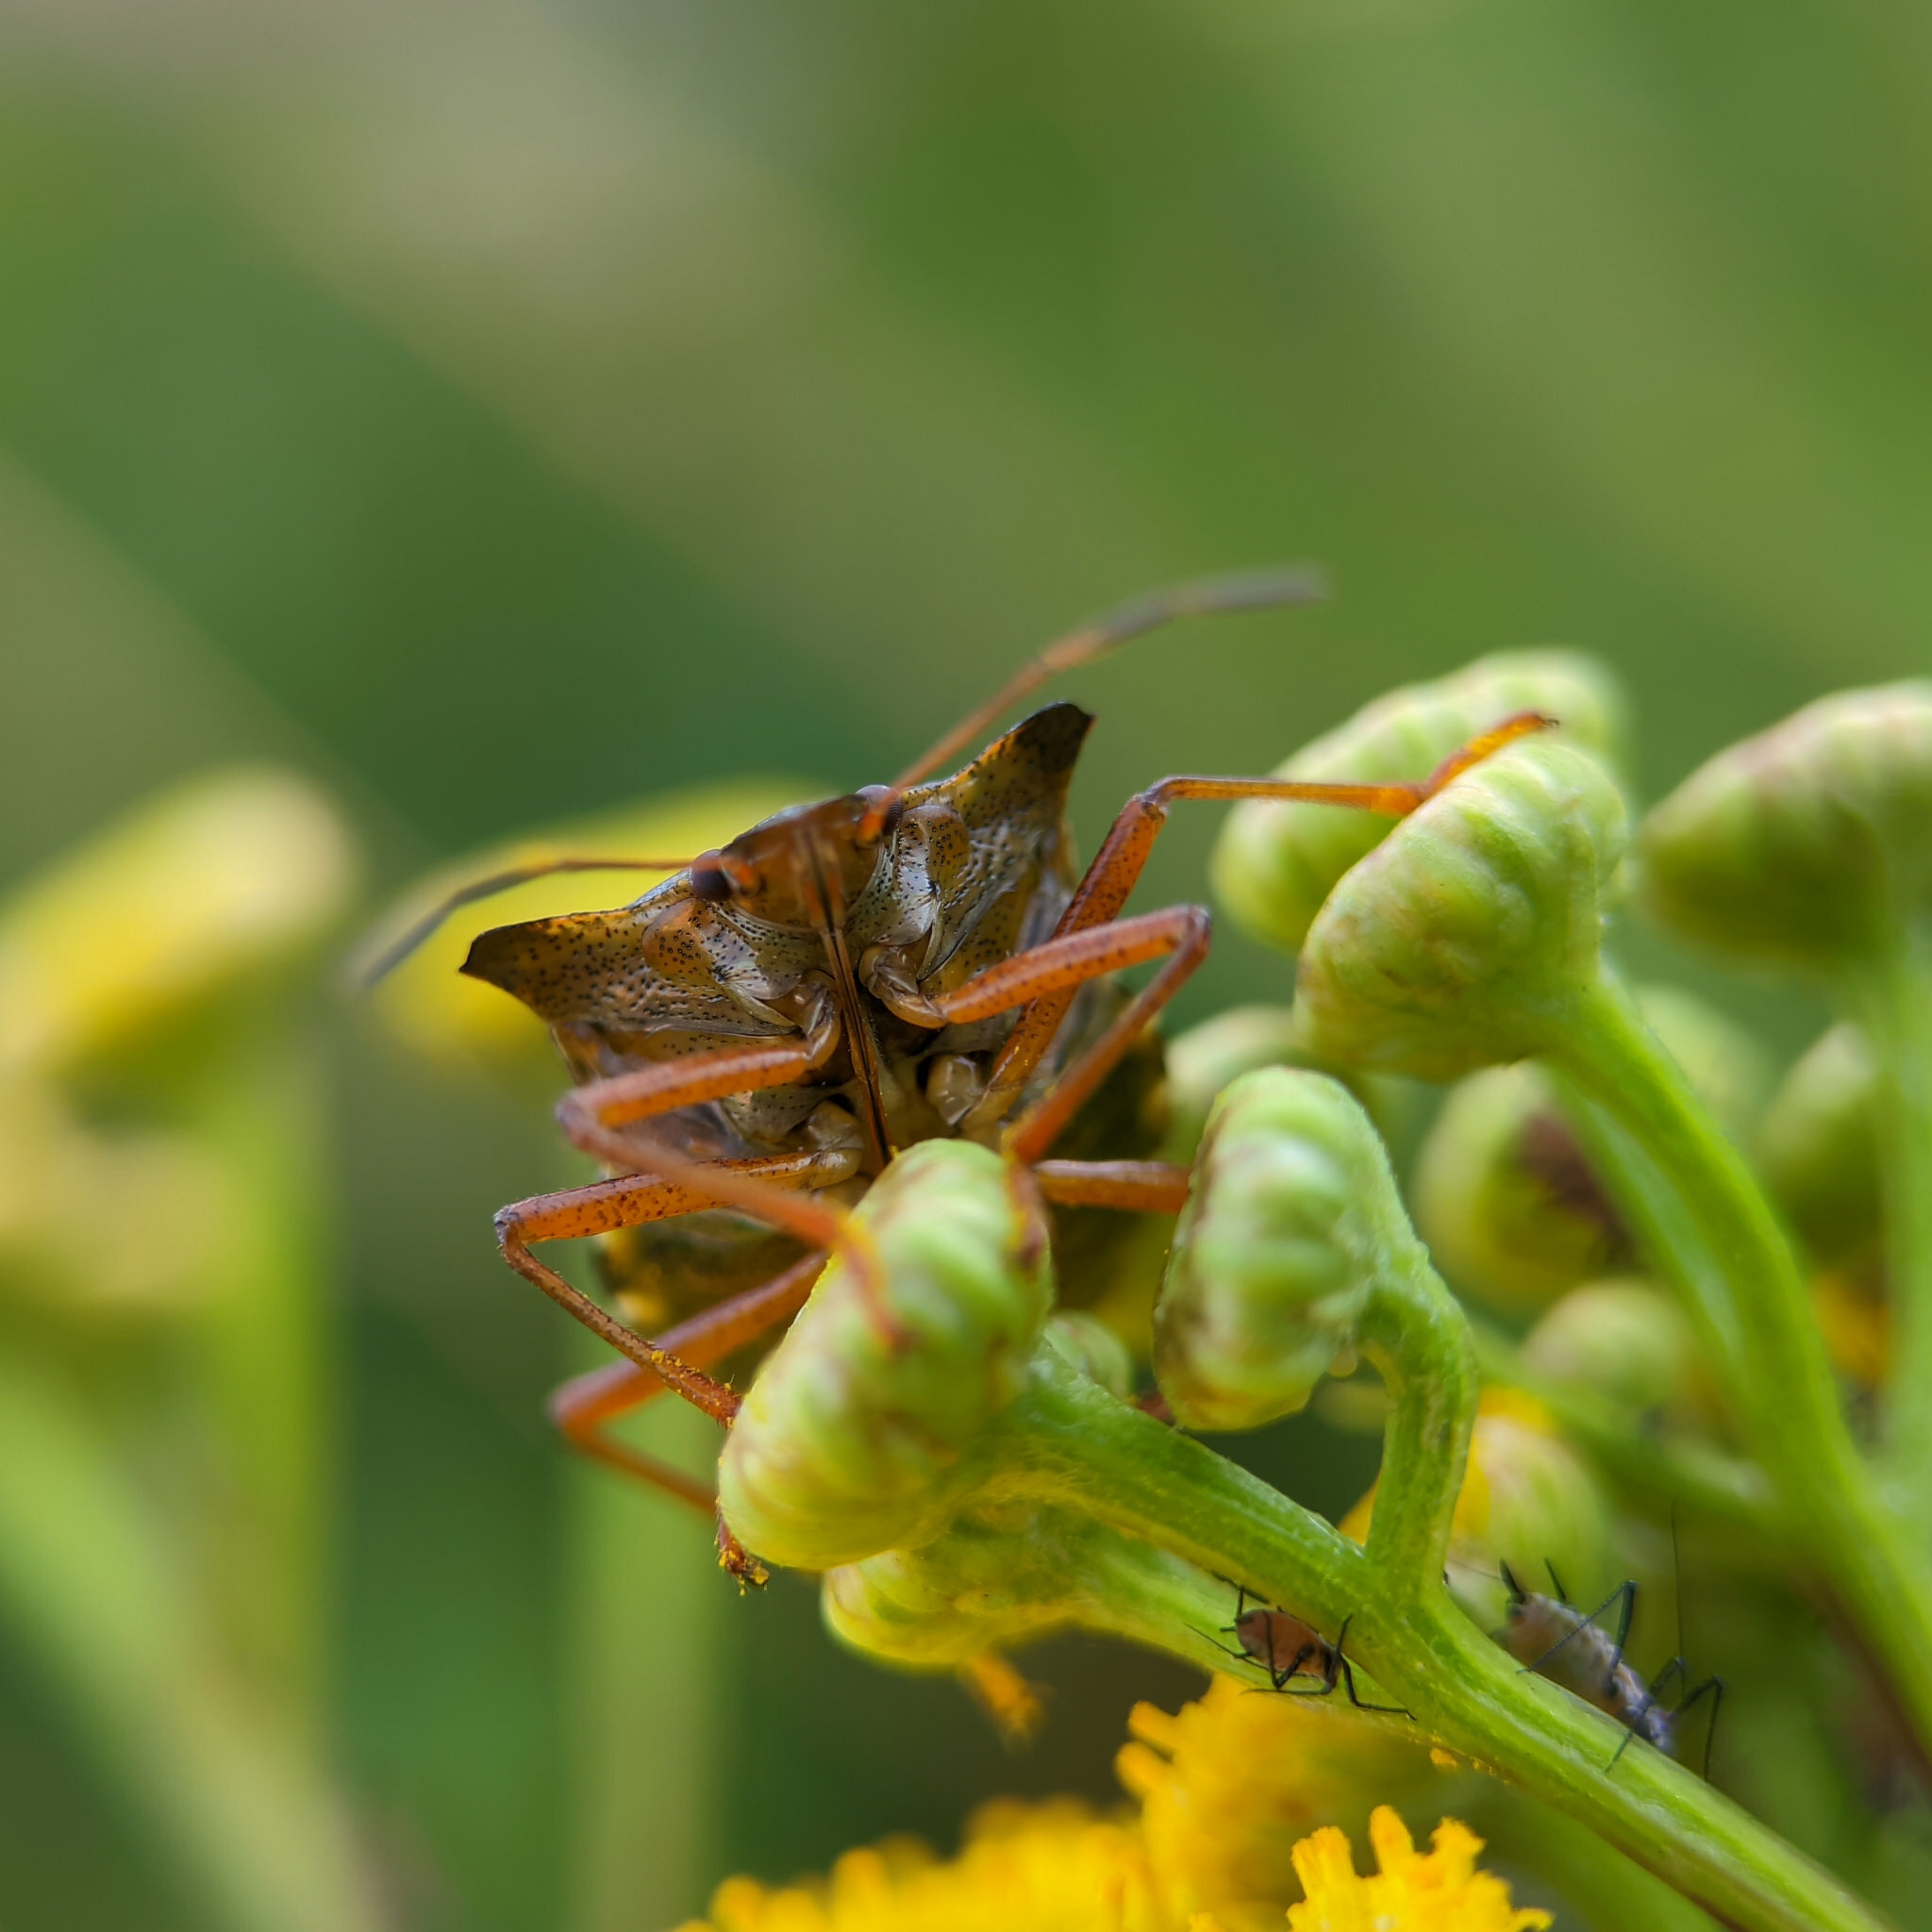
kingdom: Animalia
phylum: Arthropoda
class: Insecta
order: Hemiptera
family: Pentatomidae
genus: Pentatoma
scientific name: Pentatoma rufipes
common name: Forest bug
